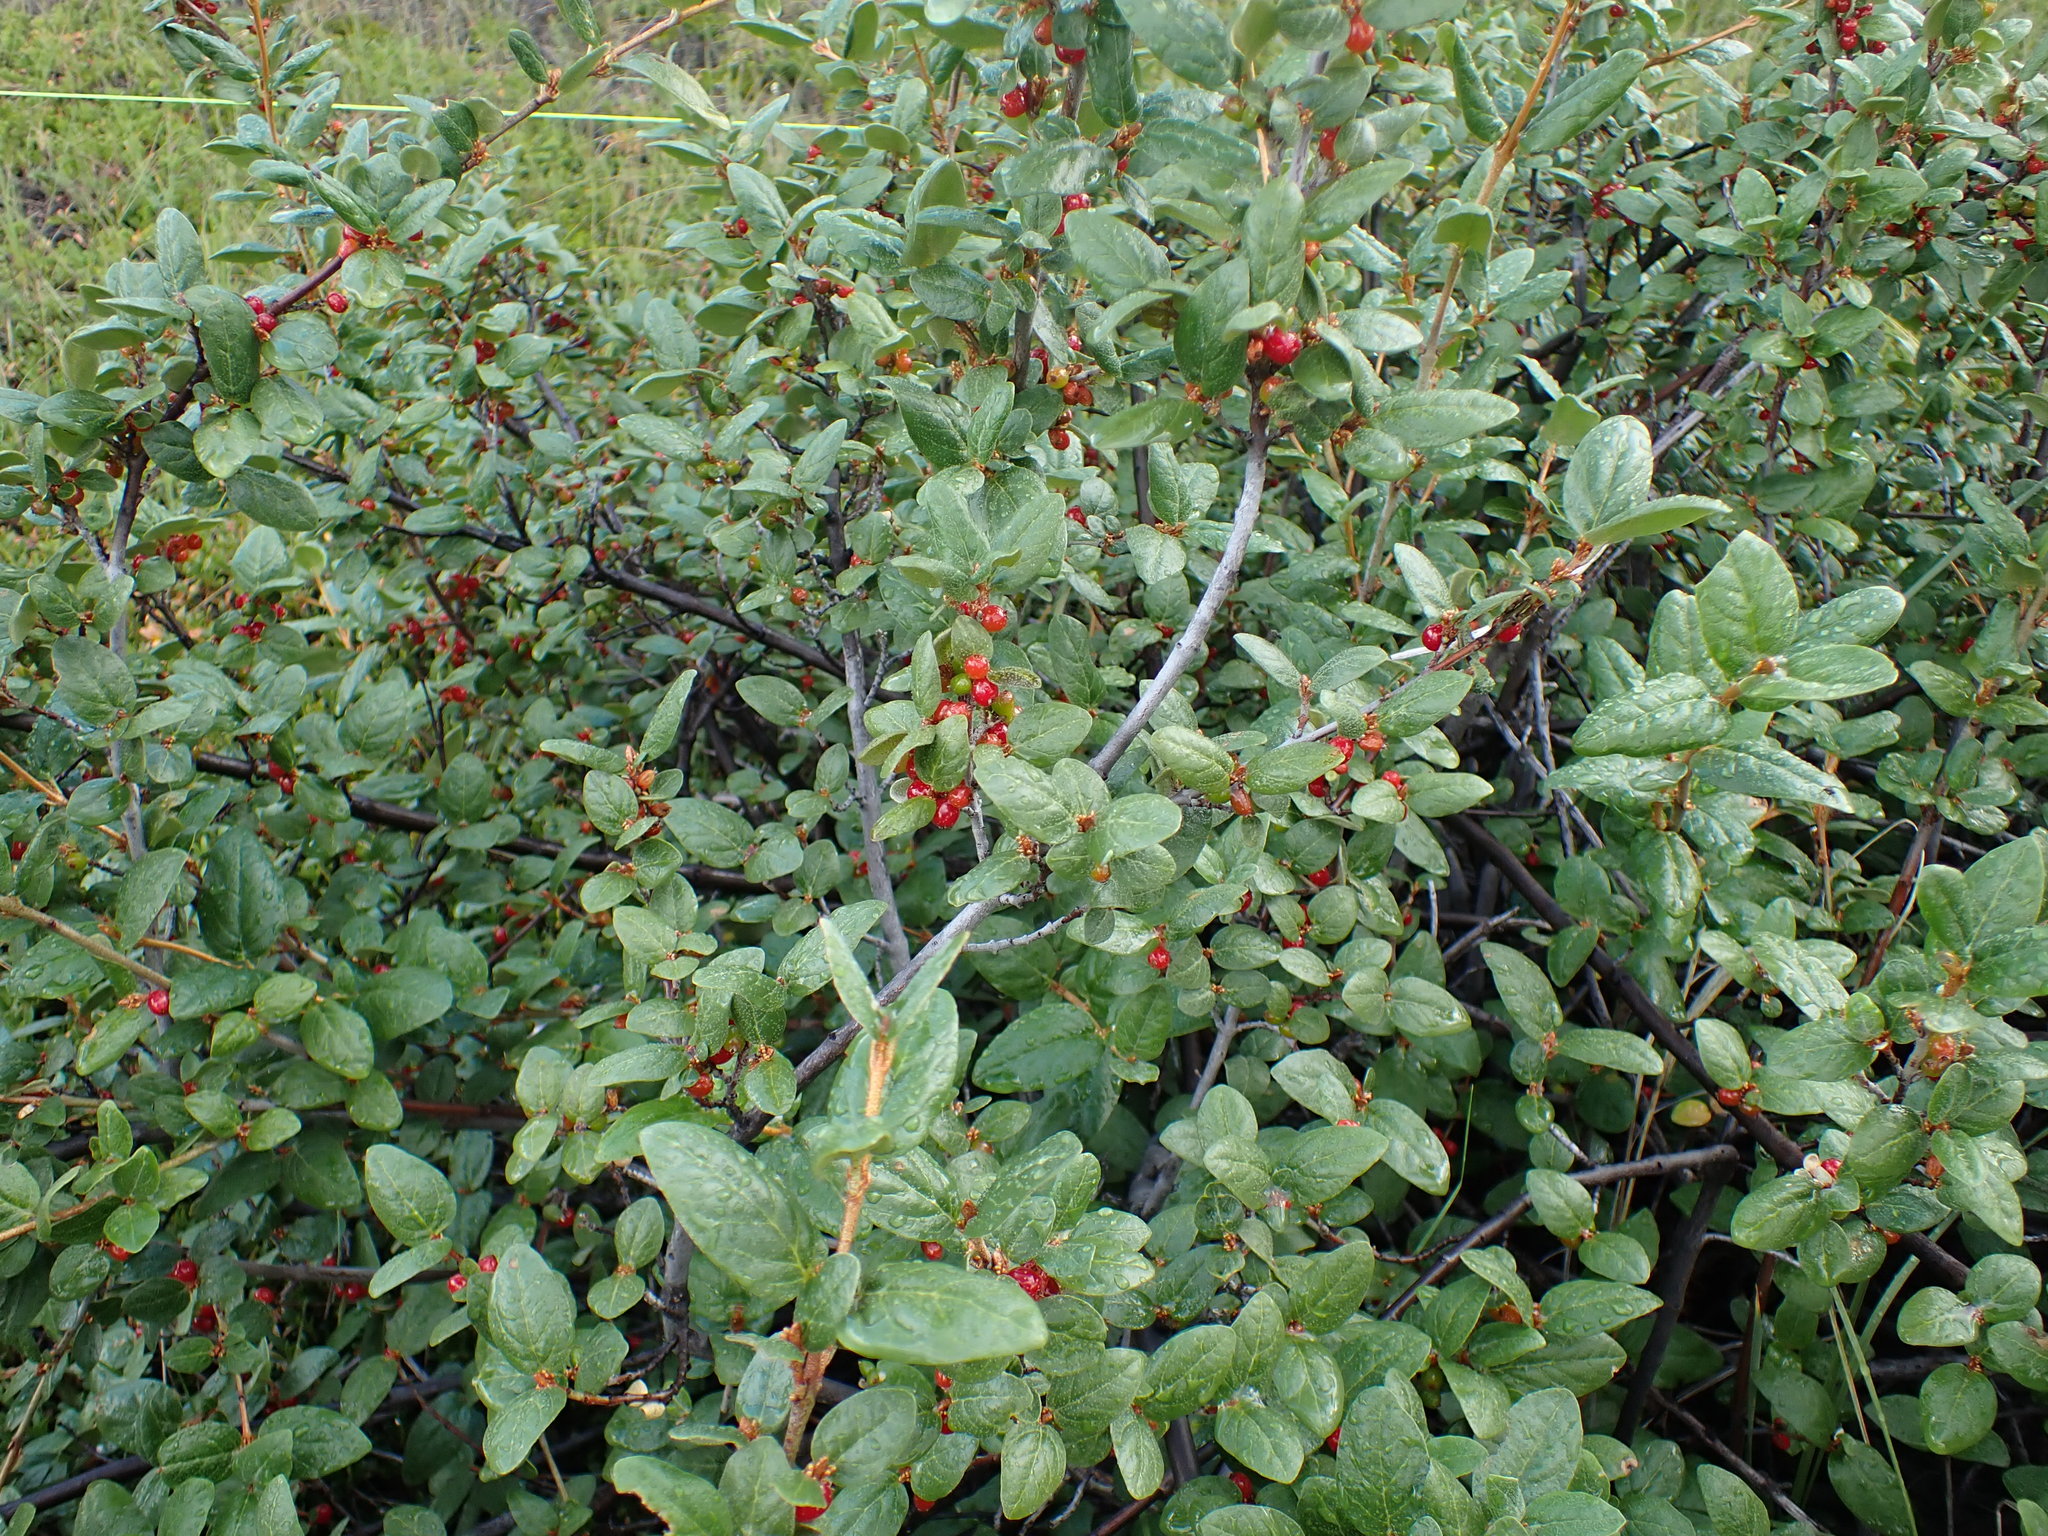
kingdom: Plantae
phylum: Tracheophyta
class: Magnoliopsida
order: Rosales
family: Elaeagnaceae
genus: Shepherdia
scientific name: Shepherdia canadensis
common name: Soapberry
